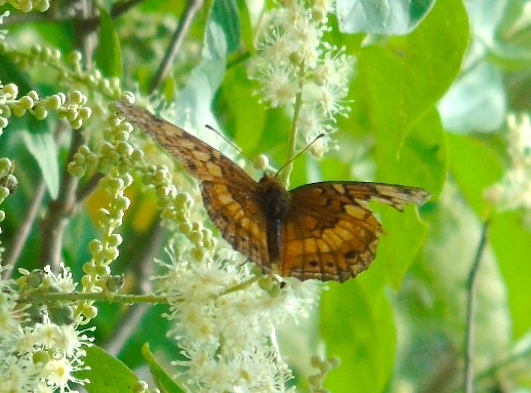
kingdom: Animalia
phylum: Arthropoda
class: Insecta
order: Lepidoptera
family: Nymphalidae
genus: Euptoieta
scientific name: Euptoieta claudia
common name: Variegated fritillary
